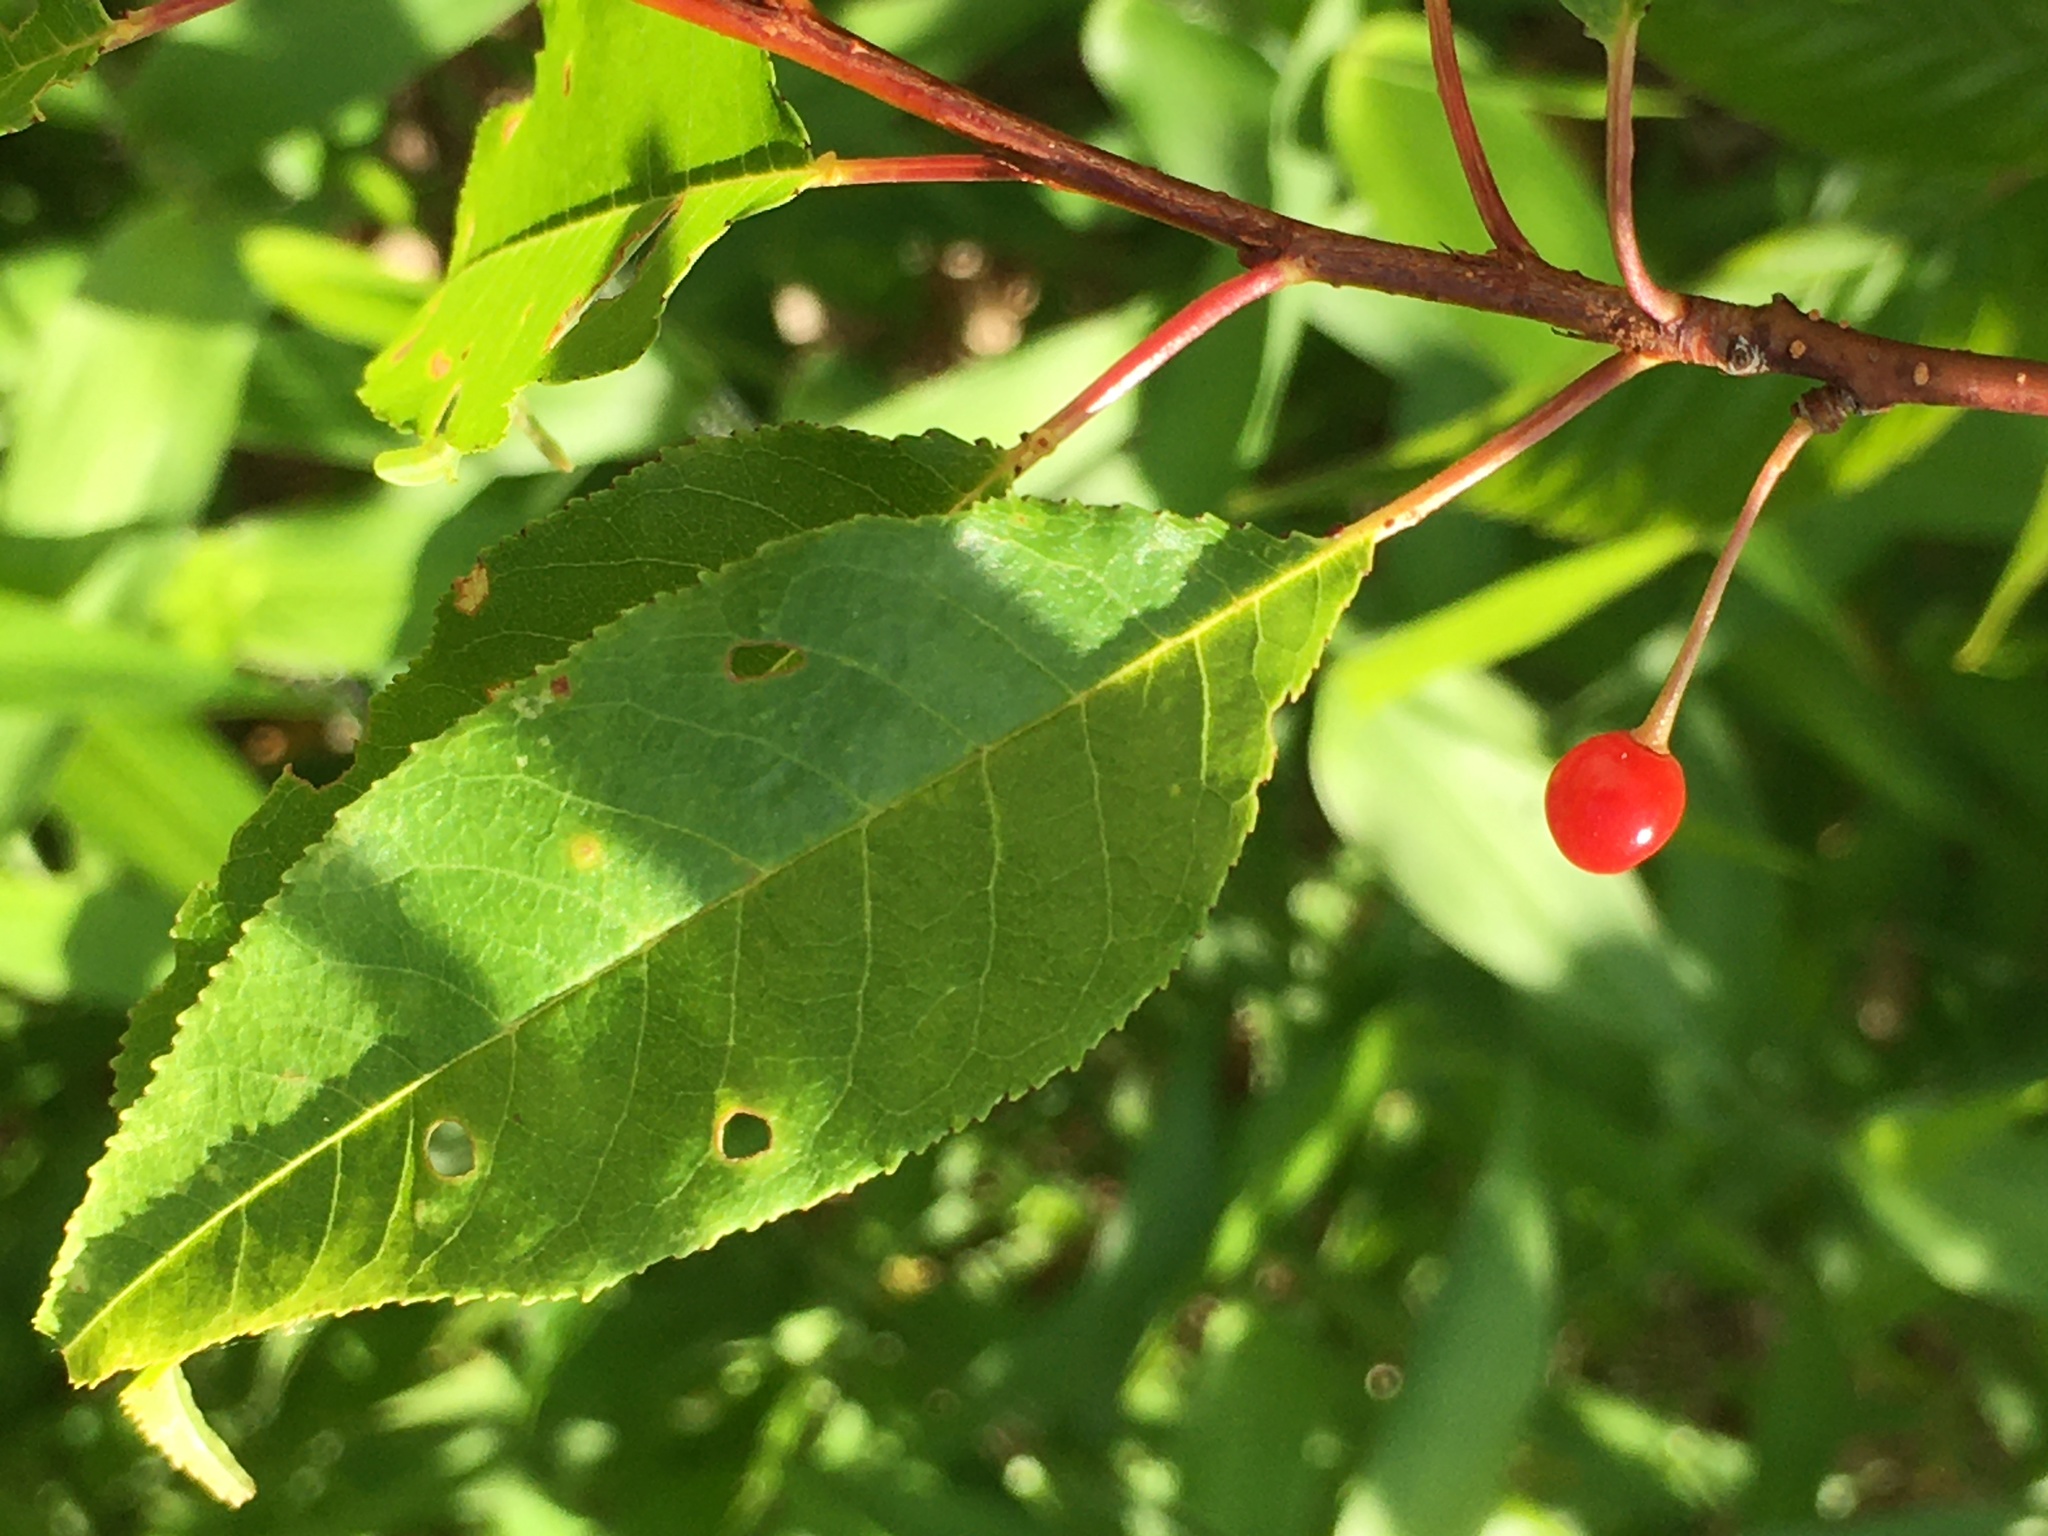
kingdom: Plantae
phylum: Tracheophyta
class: Magnoliopsida
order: Rosales
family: Rosaceae
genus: Prunus
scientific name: Prunus pensylvanica
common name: Pin cherry
